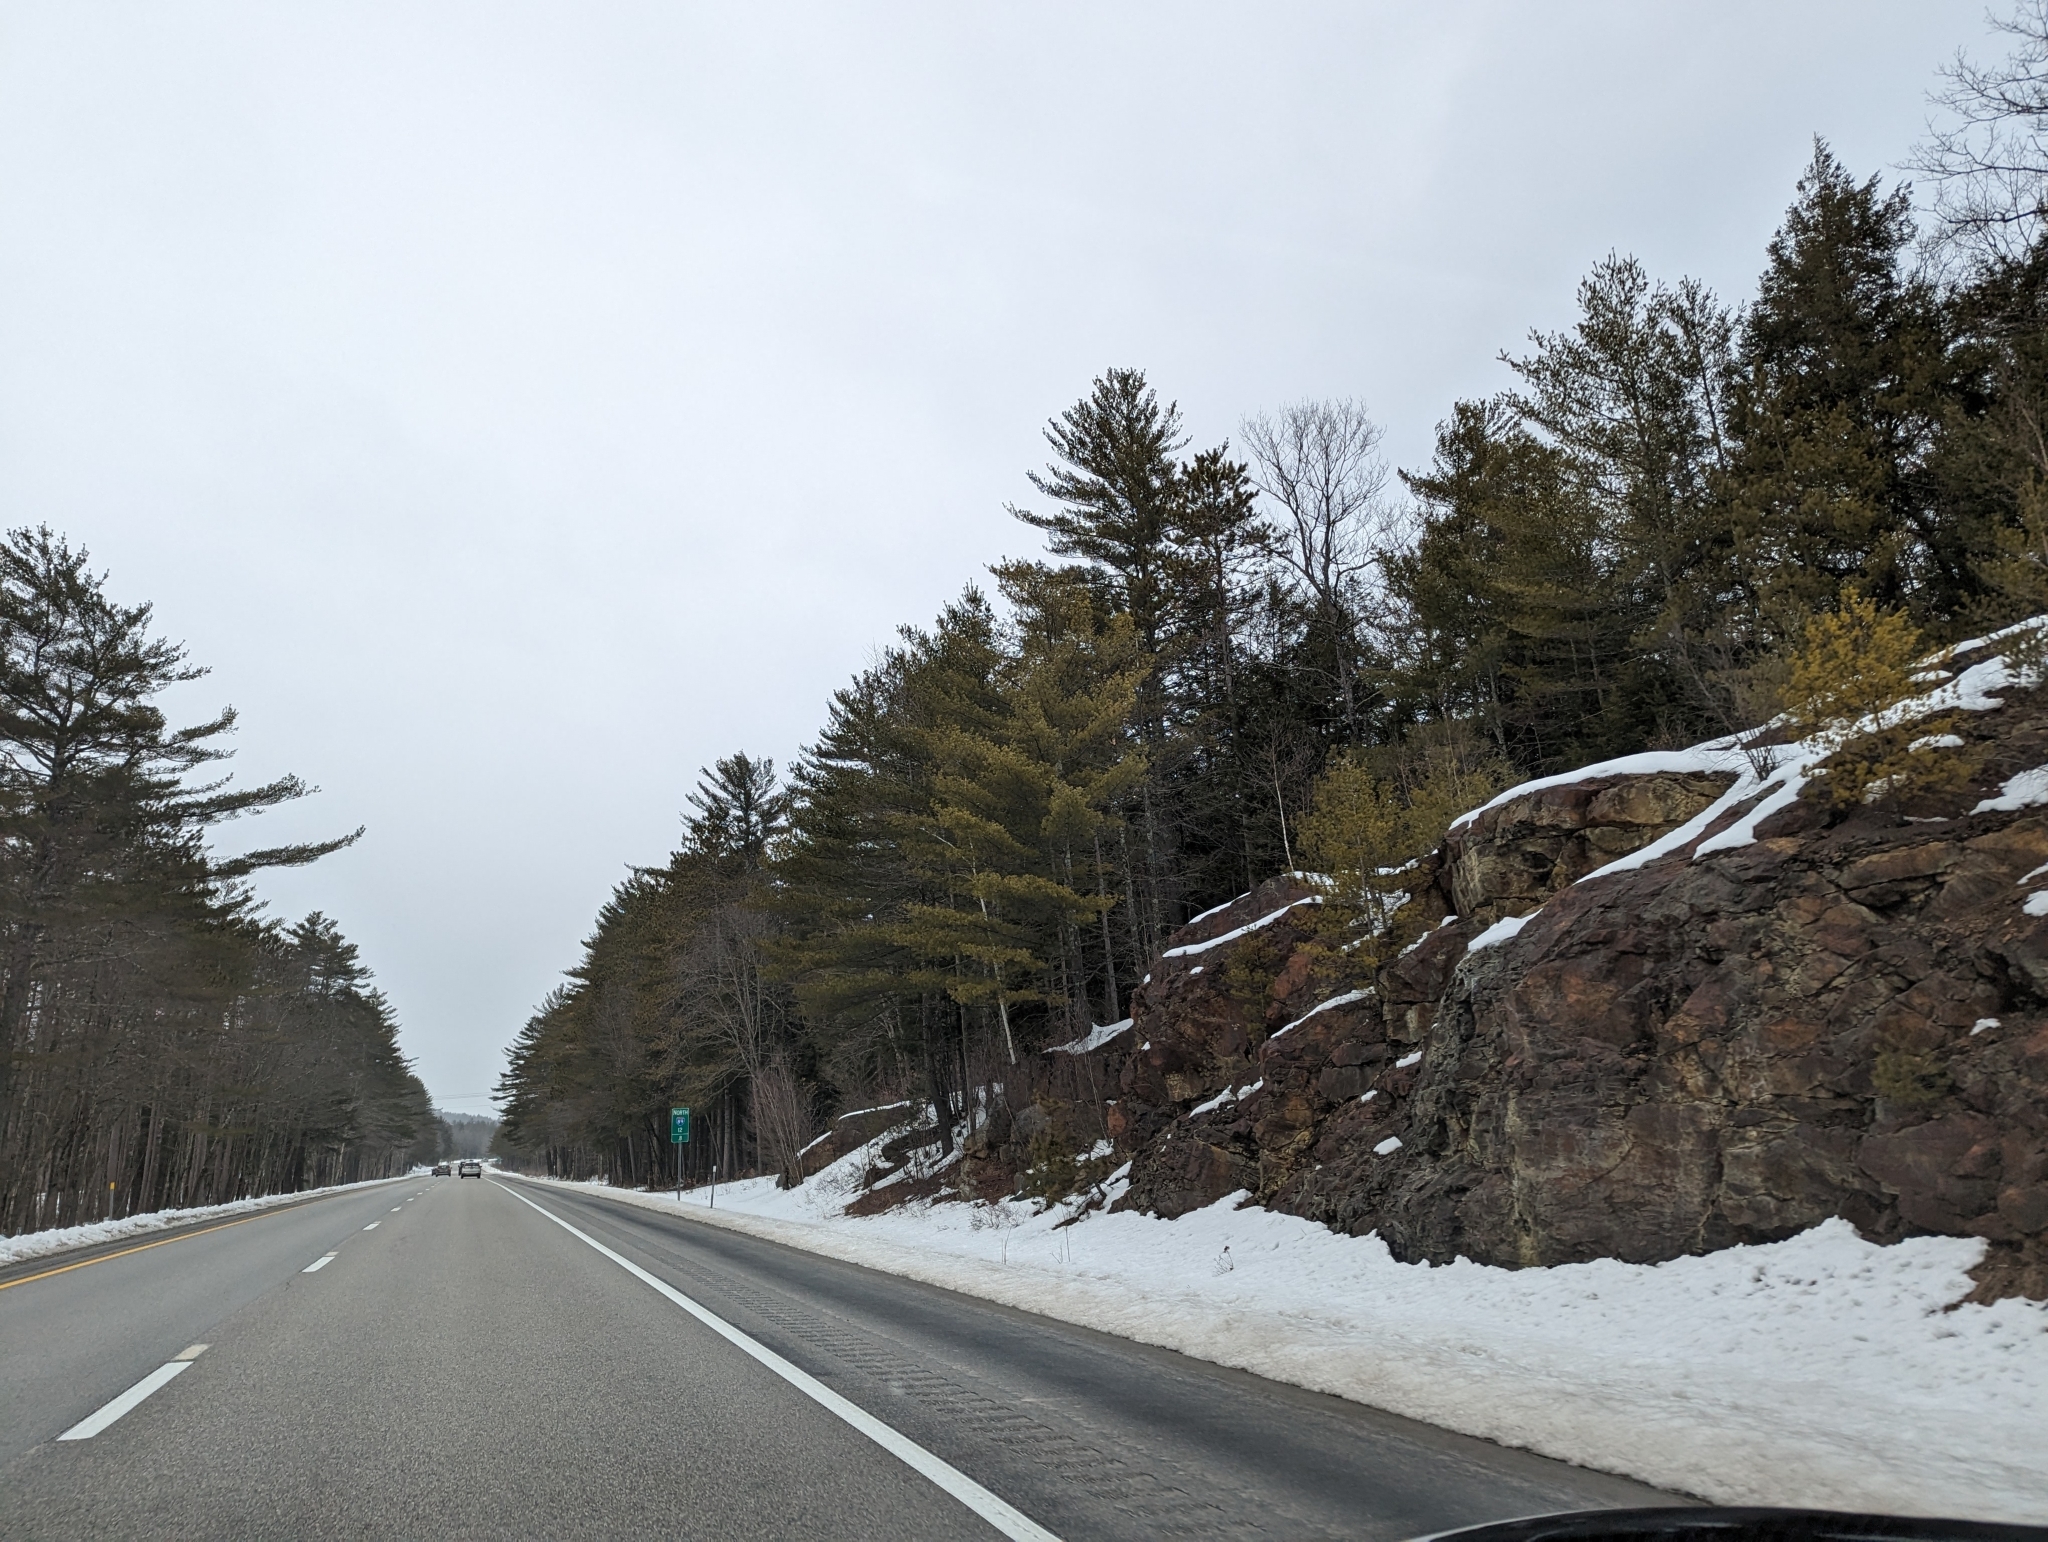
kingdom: Plantae
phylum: Tracheophyta
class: Pinopsida
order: Pinales
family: Pinaceae
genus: Pinus
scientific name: Pinus strobus
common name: Weymouth pine
